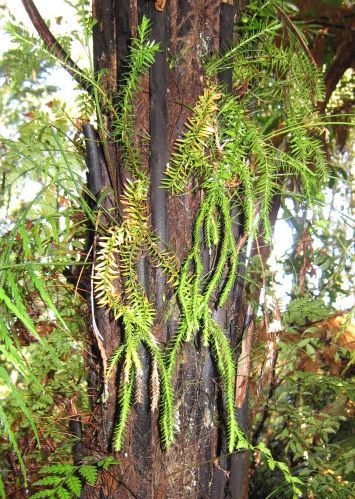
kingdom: Plantae
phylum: Tracheophyta
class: Lycopodiopsida
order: Lycopodiales
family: Lycopodiaceae
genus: Phlegmariurus
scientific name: Phlegmariurus varius
